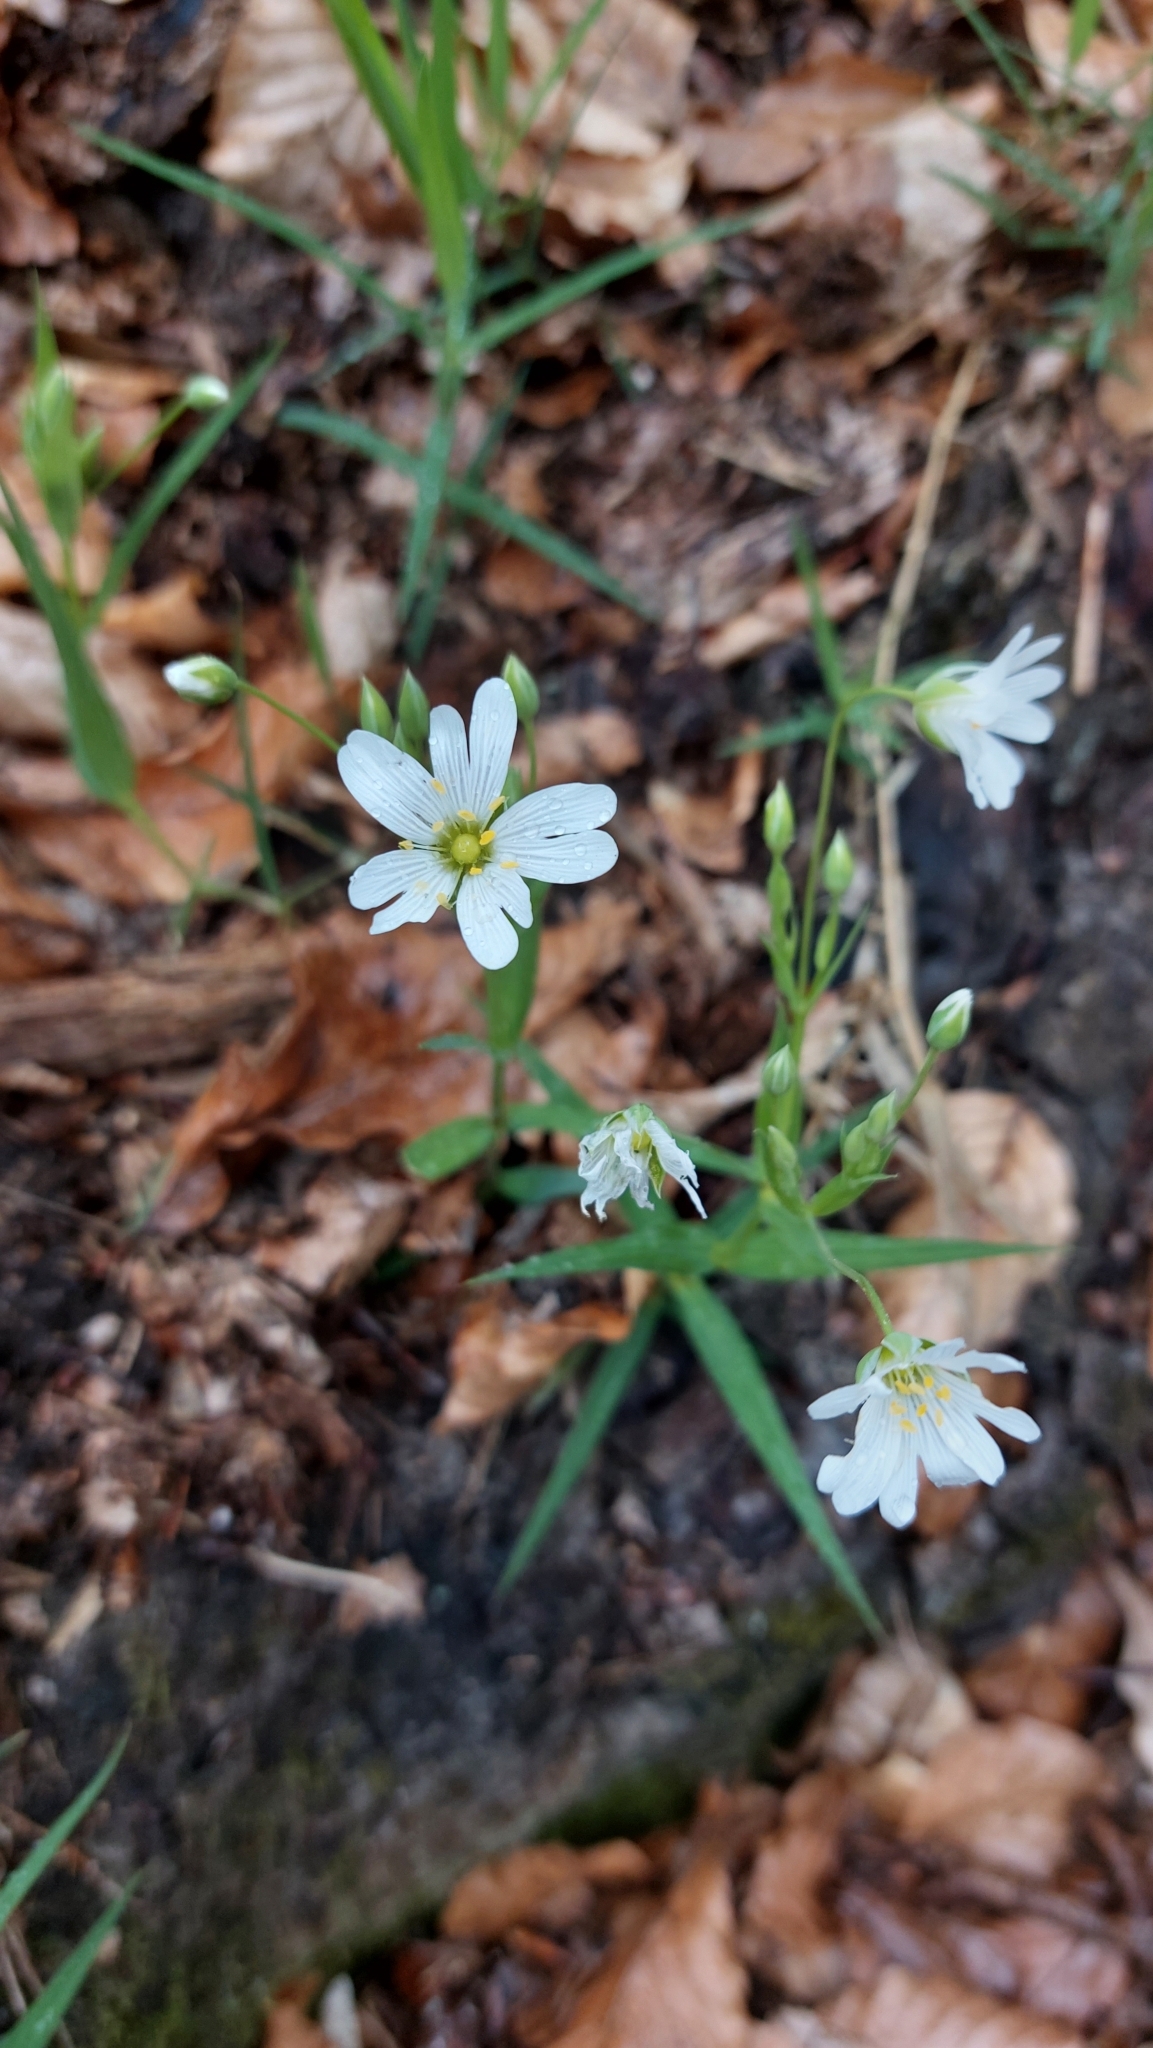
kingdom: Plantae
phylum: Tracheophyta
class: Magnoliopsida
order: Caryophyllales
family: Caryophyllaceae
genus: Rabelera
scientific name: Rabelera holostea
